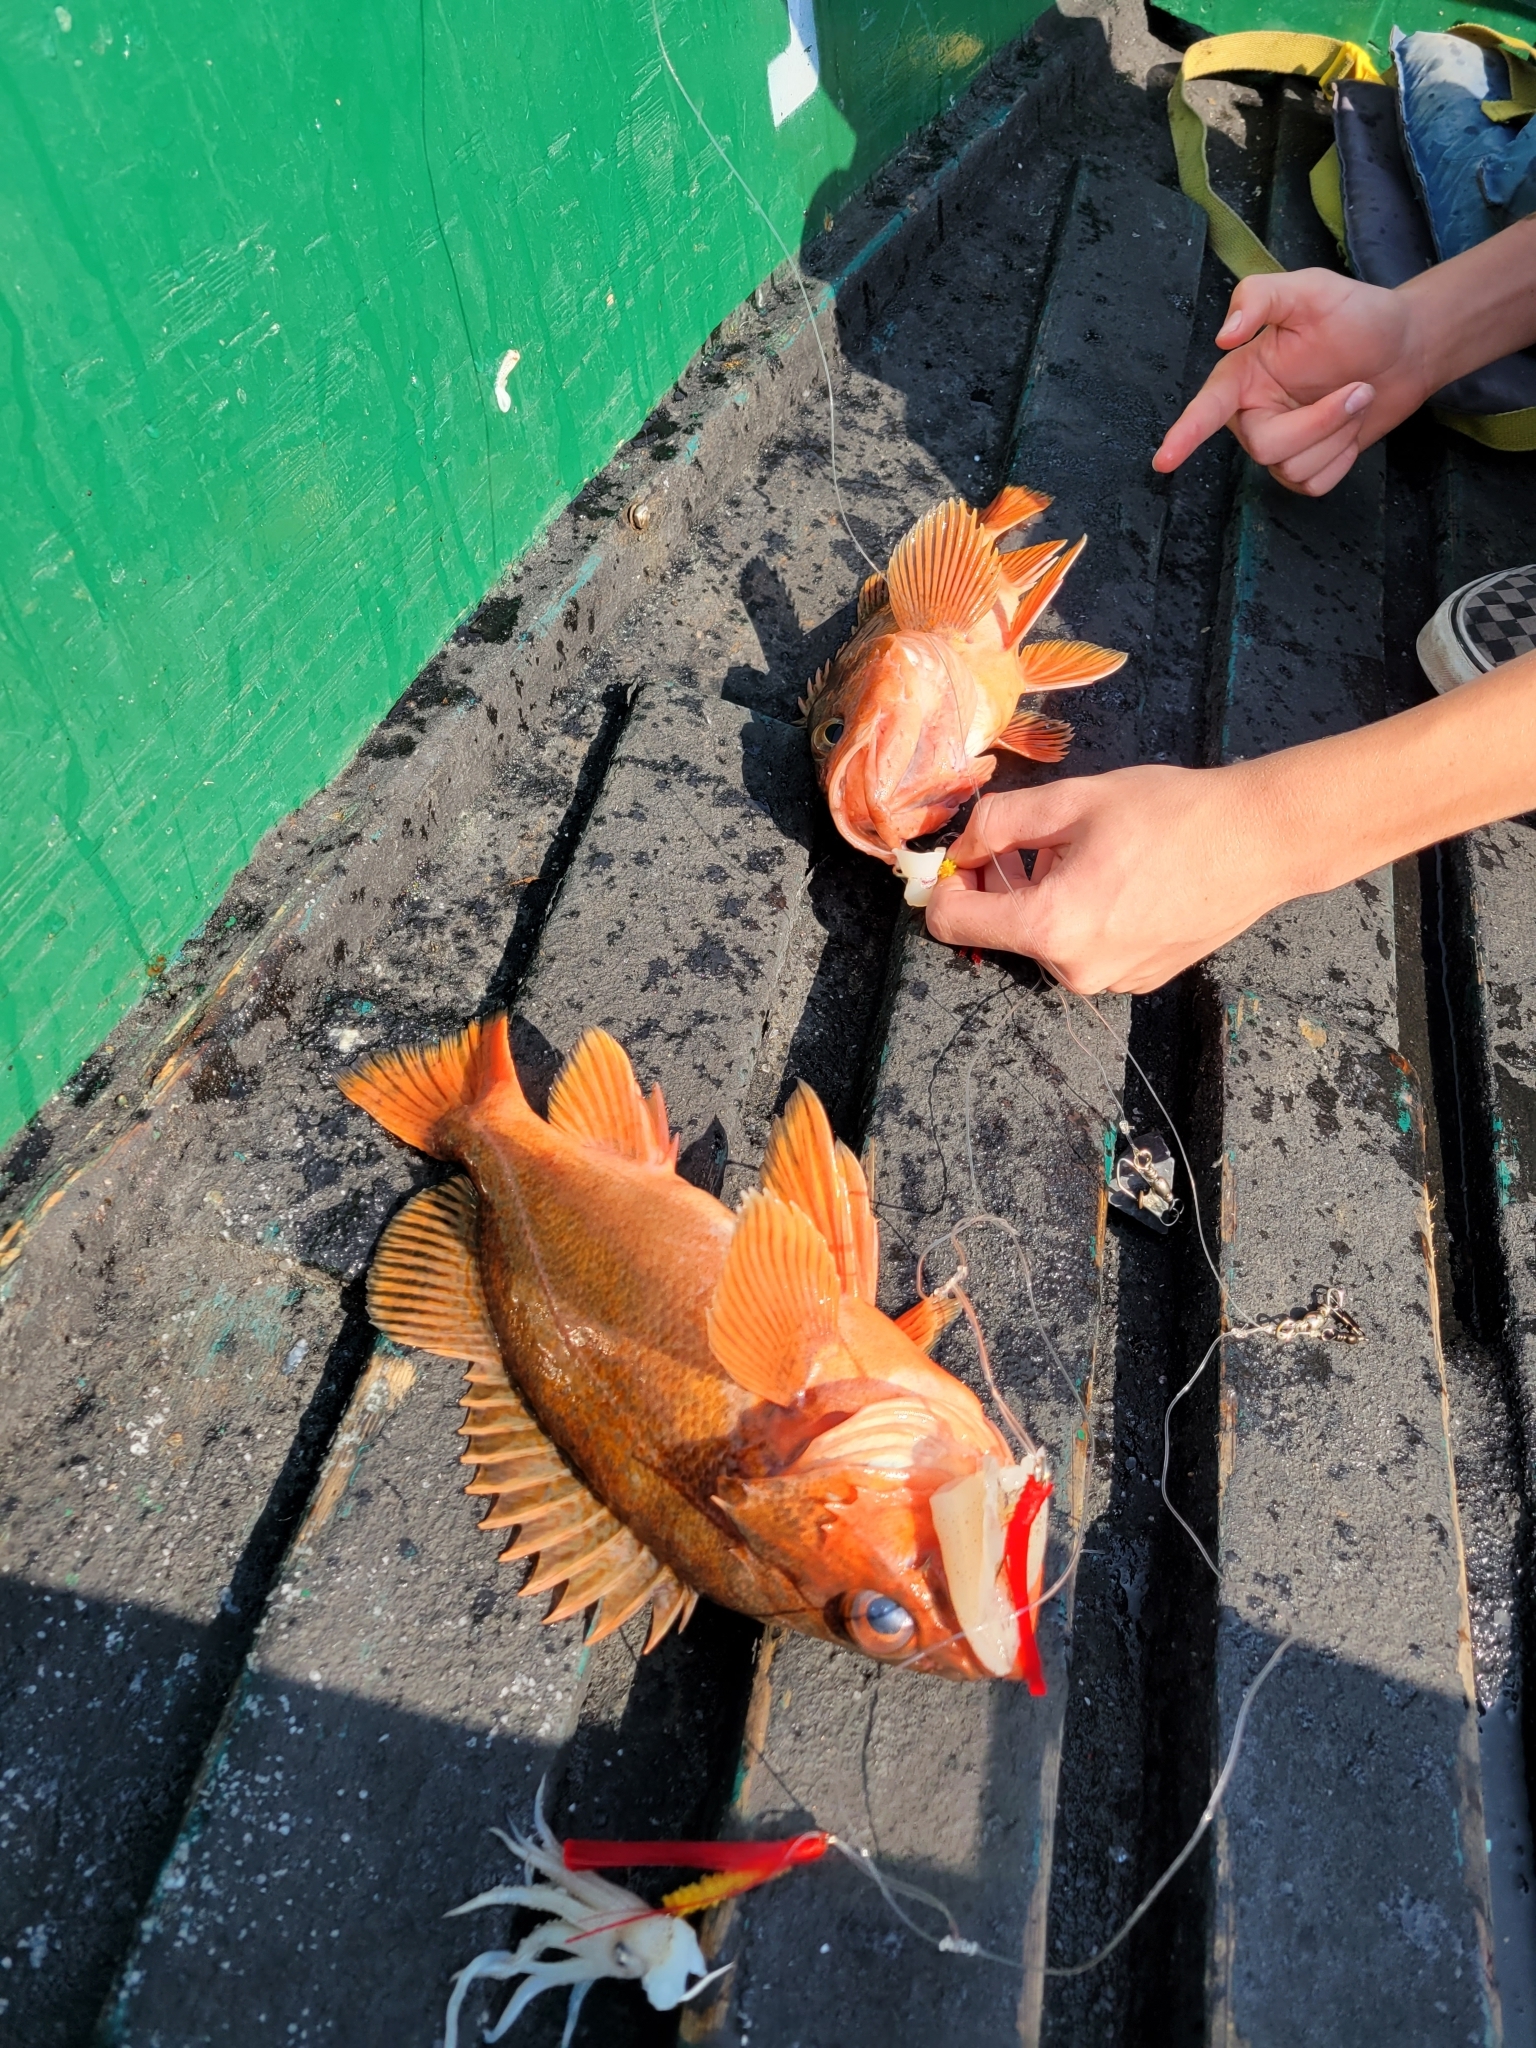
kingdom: Animalia
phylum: Chordata
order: Scorpaeniformes
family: Sebastidae
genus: Sebastes
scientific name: Sebastes miniatus
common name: Vermilion rockfish
